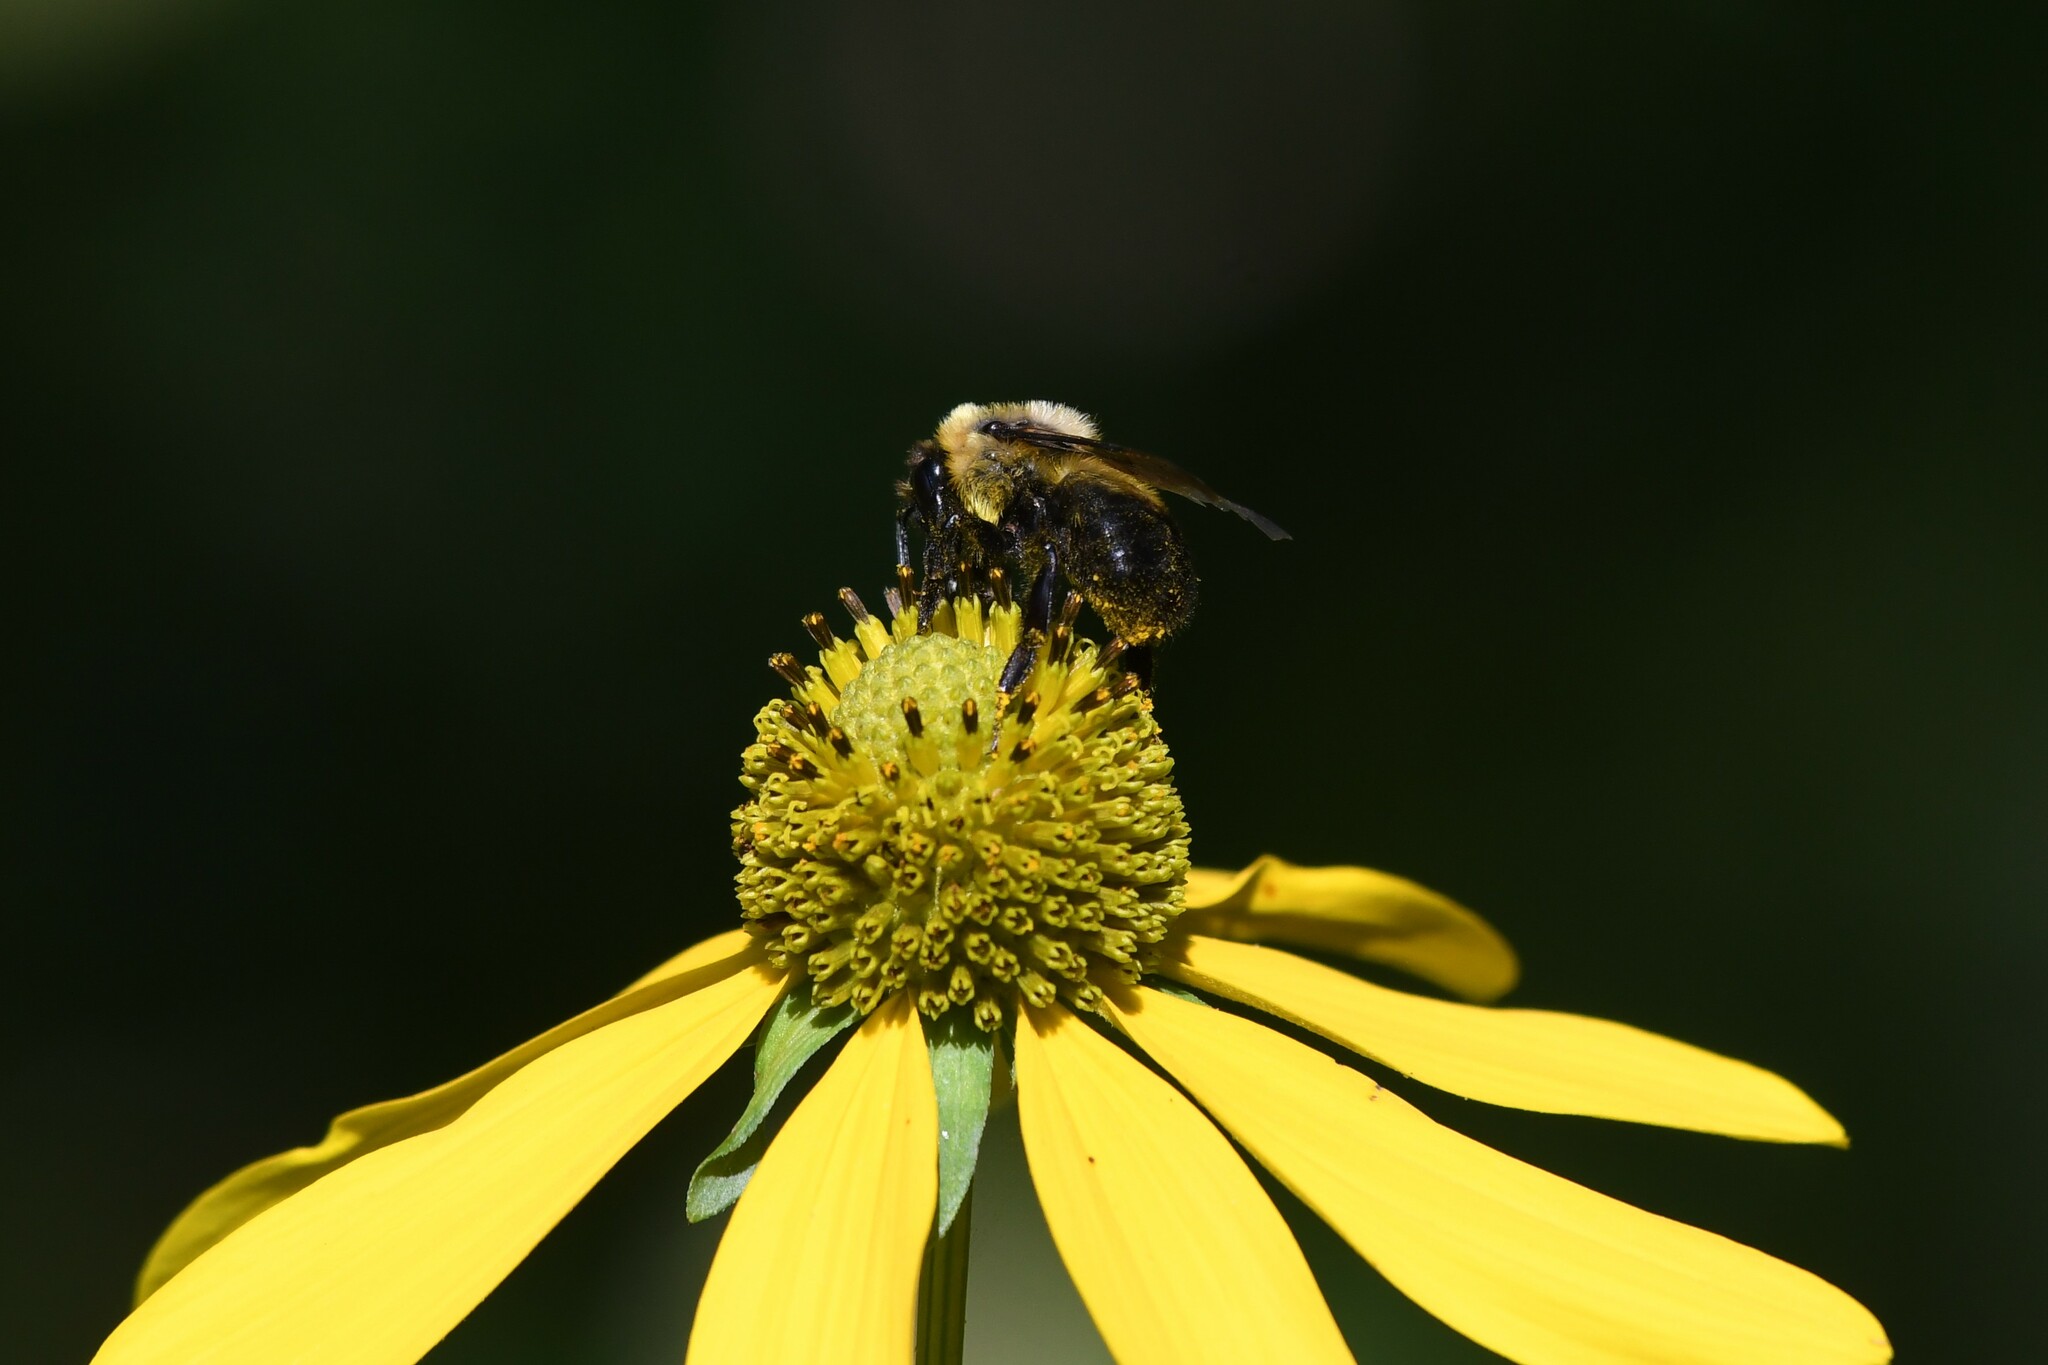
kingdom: Animalia
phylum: Arthropoda
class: Insecta
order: Hymenoptera
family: Apidae
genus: Bombus
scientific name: Bombus rufocinctus
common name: Red-belted bumble bee
